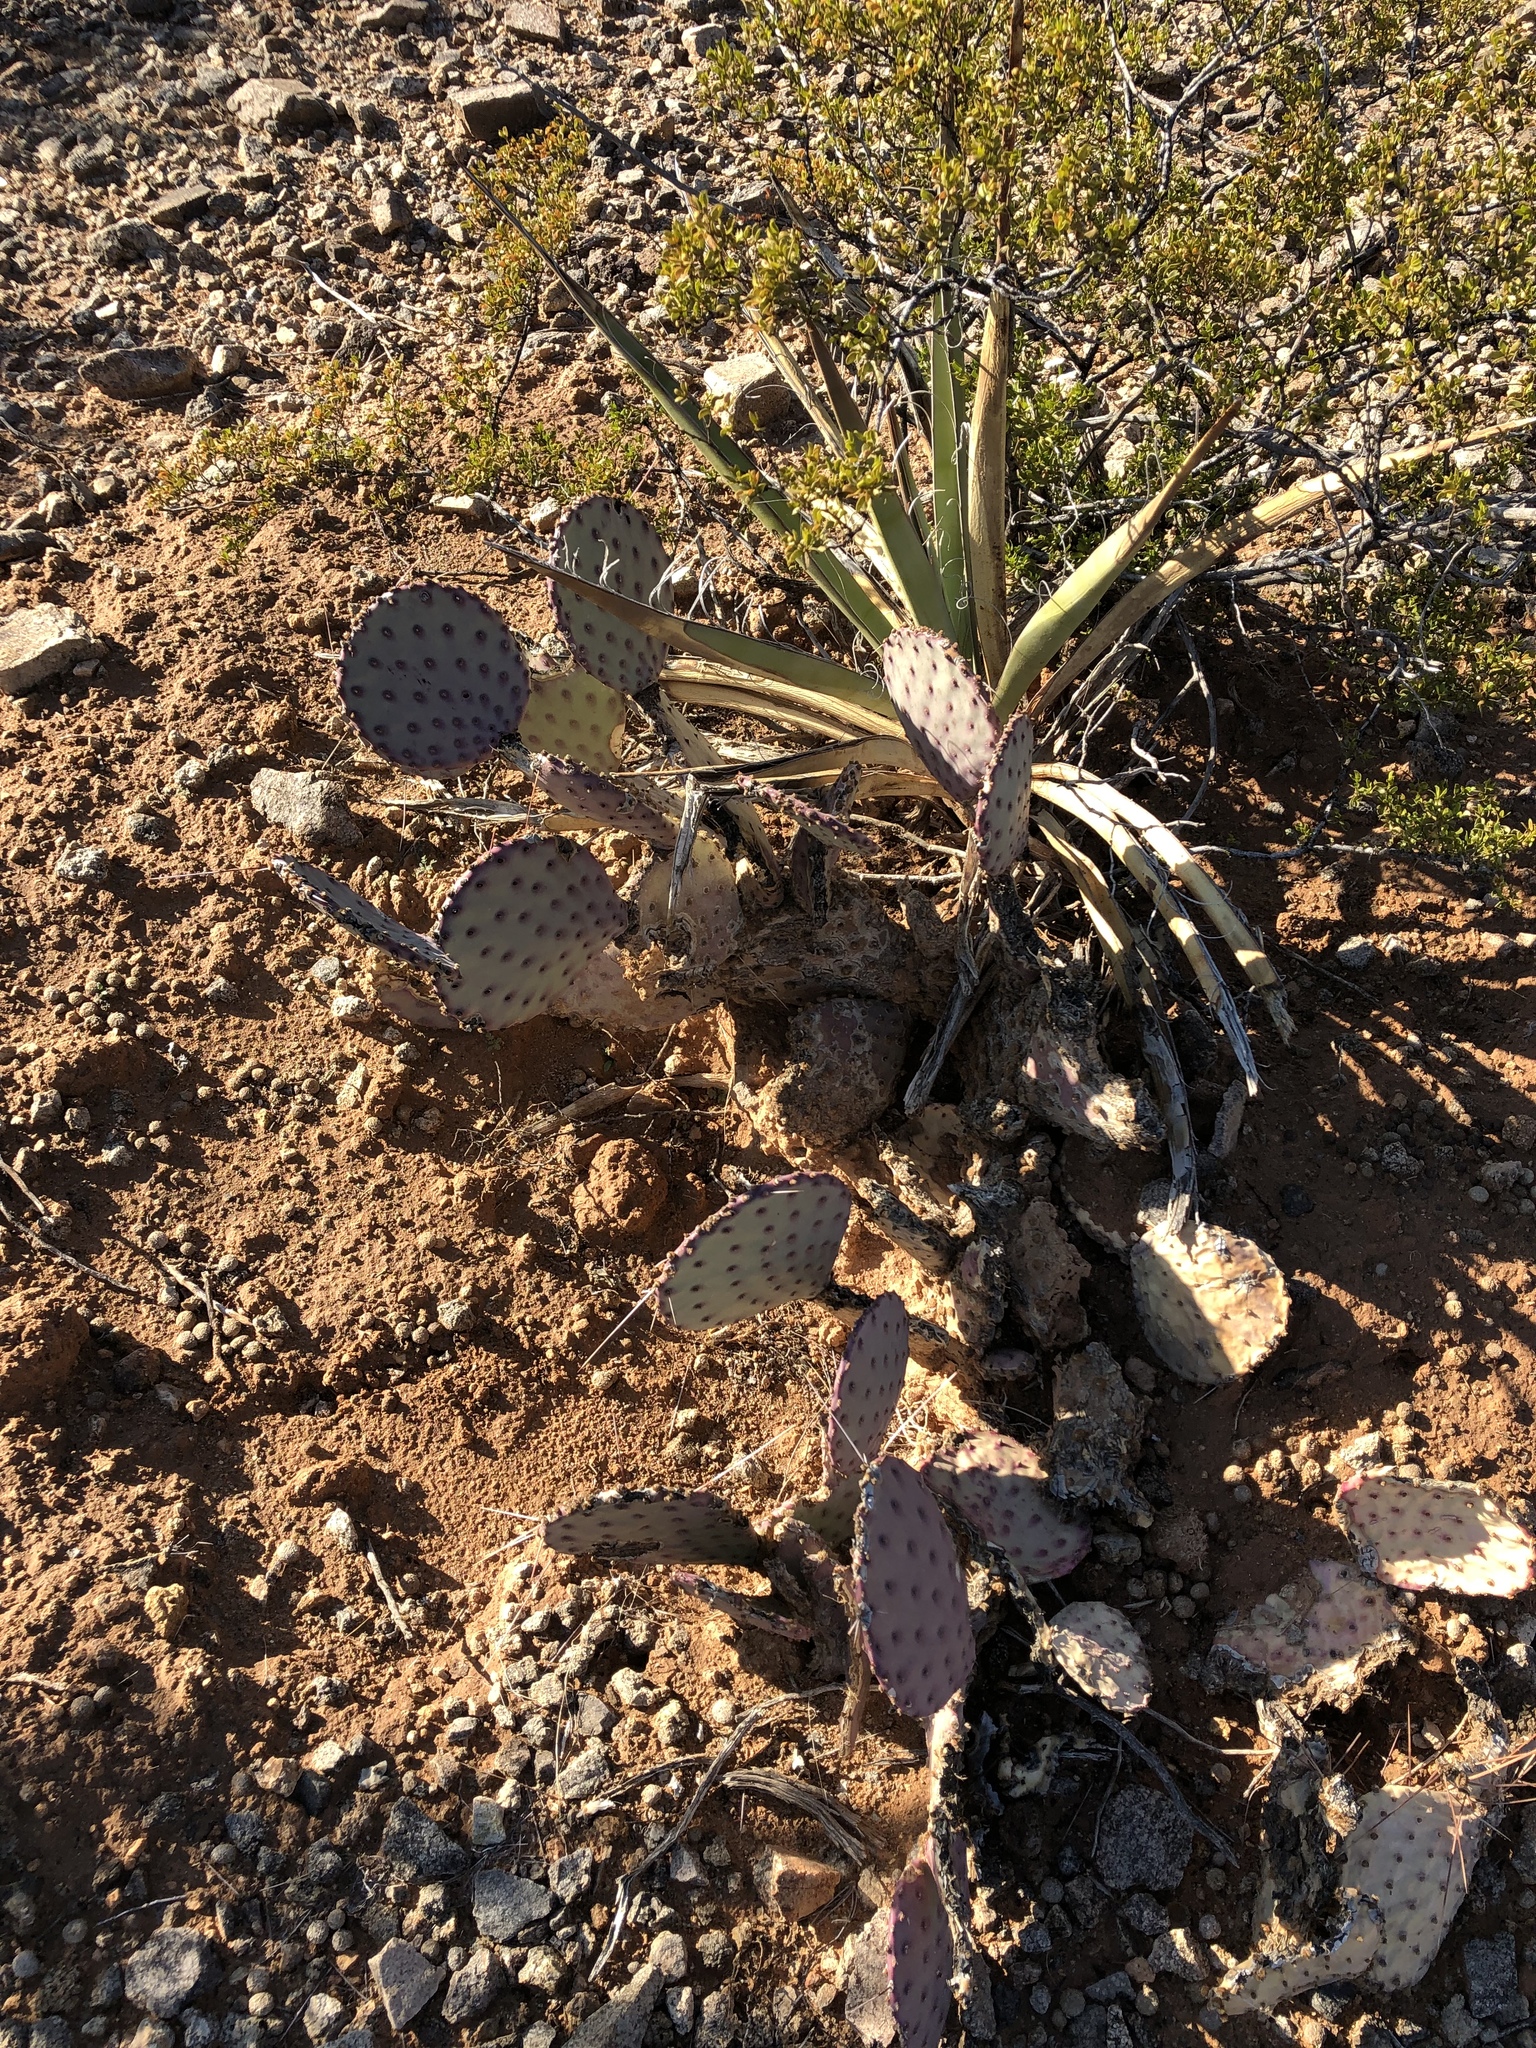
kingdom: Plantae
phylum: Tracheophyta
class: Magnoliopsida
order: Caryophyllales
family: Cactaceae
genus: Opuntia
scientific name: Opuntia macrocentra
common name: Purple prickly-pear
